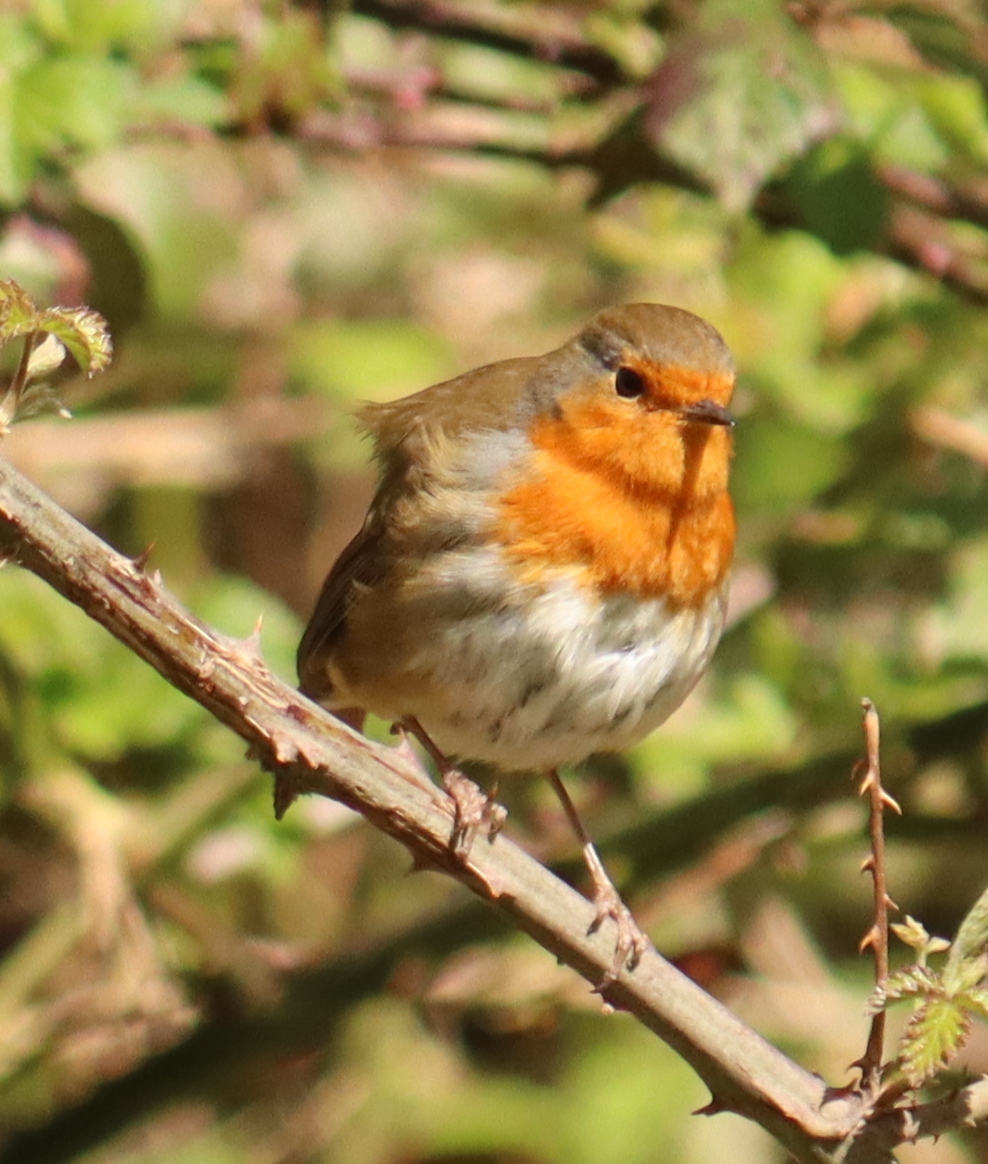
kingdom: Animalia
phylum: Chordata
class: Aves
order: Passeriformes
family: Muscicapidae
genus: Erithacus
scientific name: Erithacus rubecula
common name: European robin
